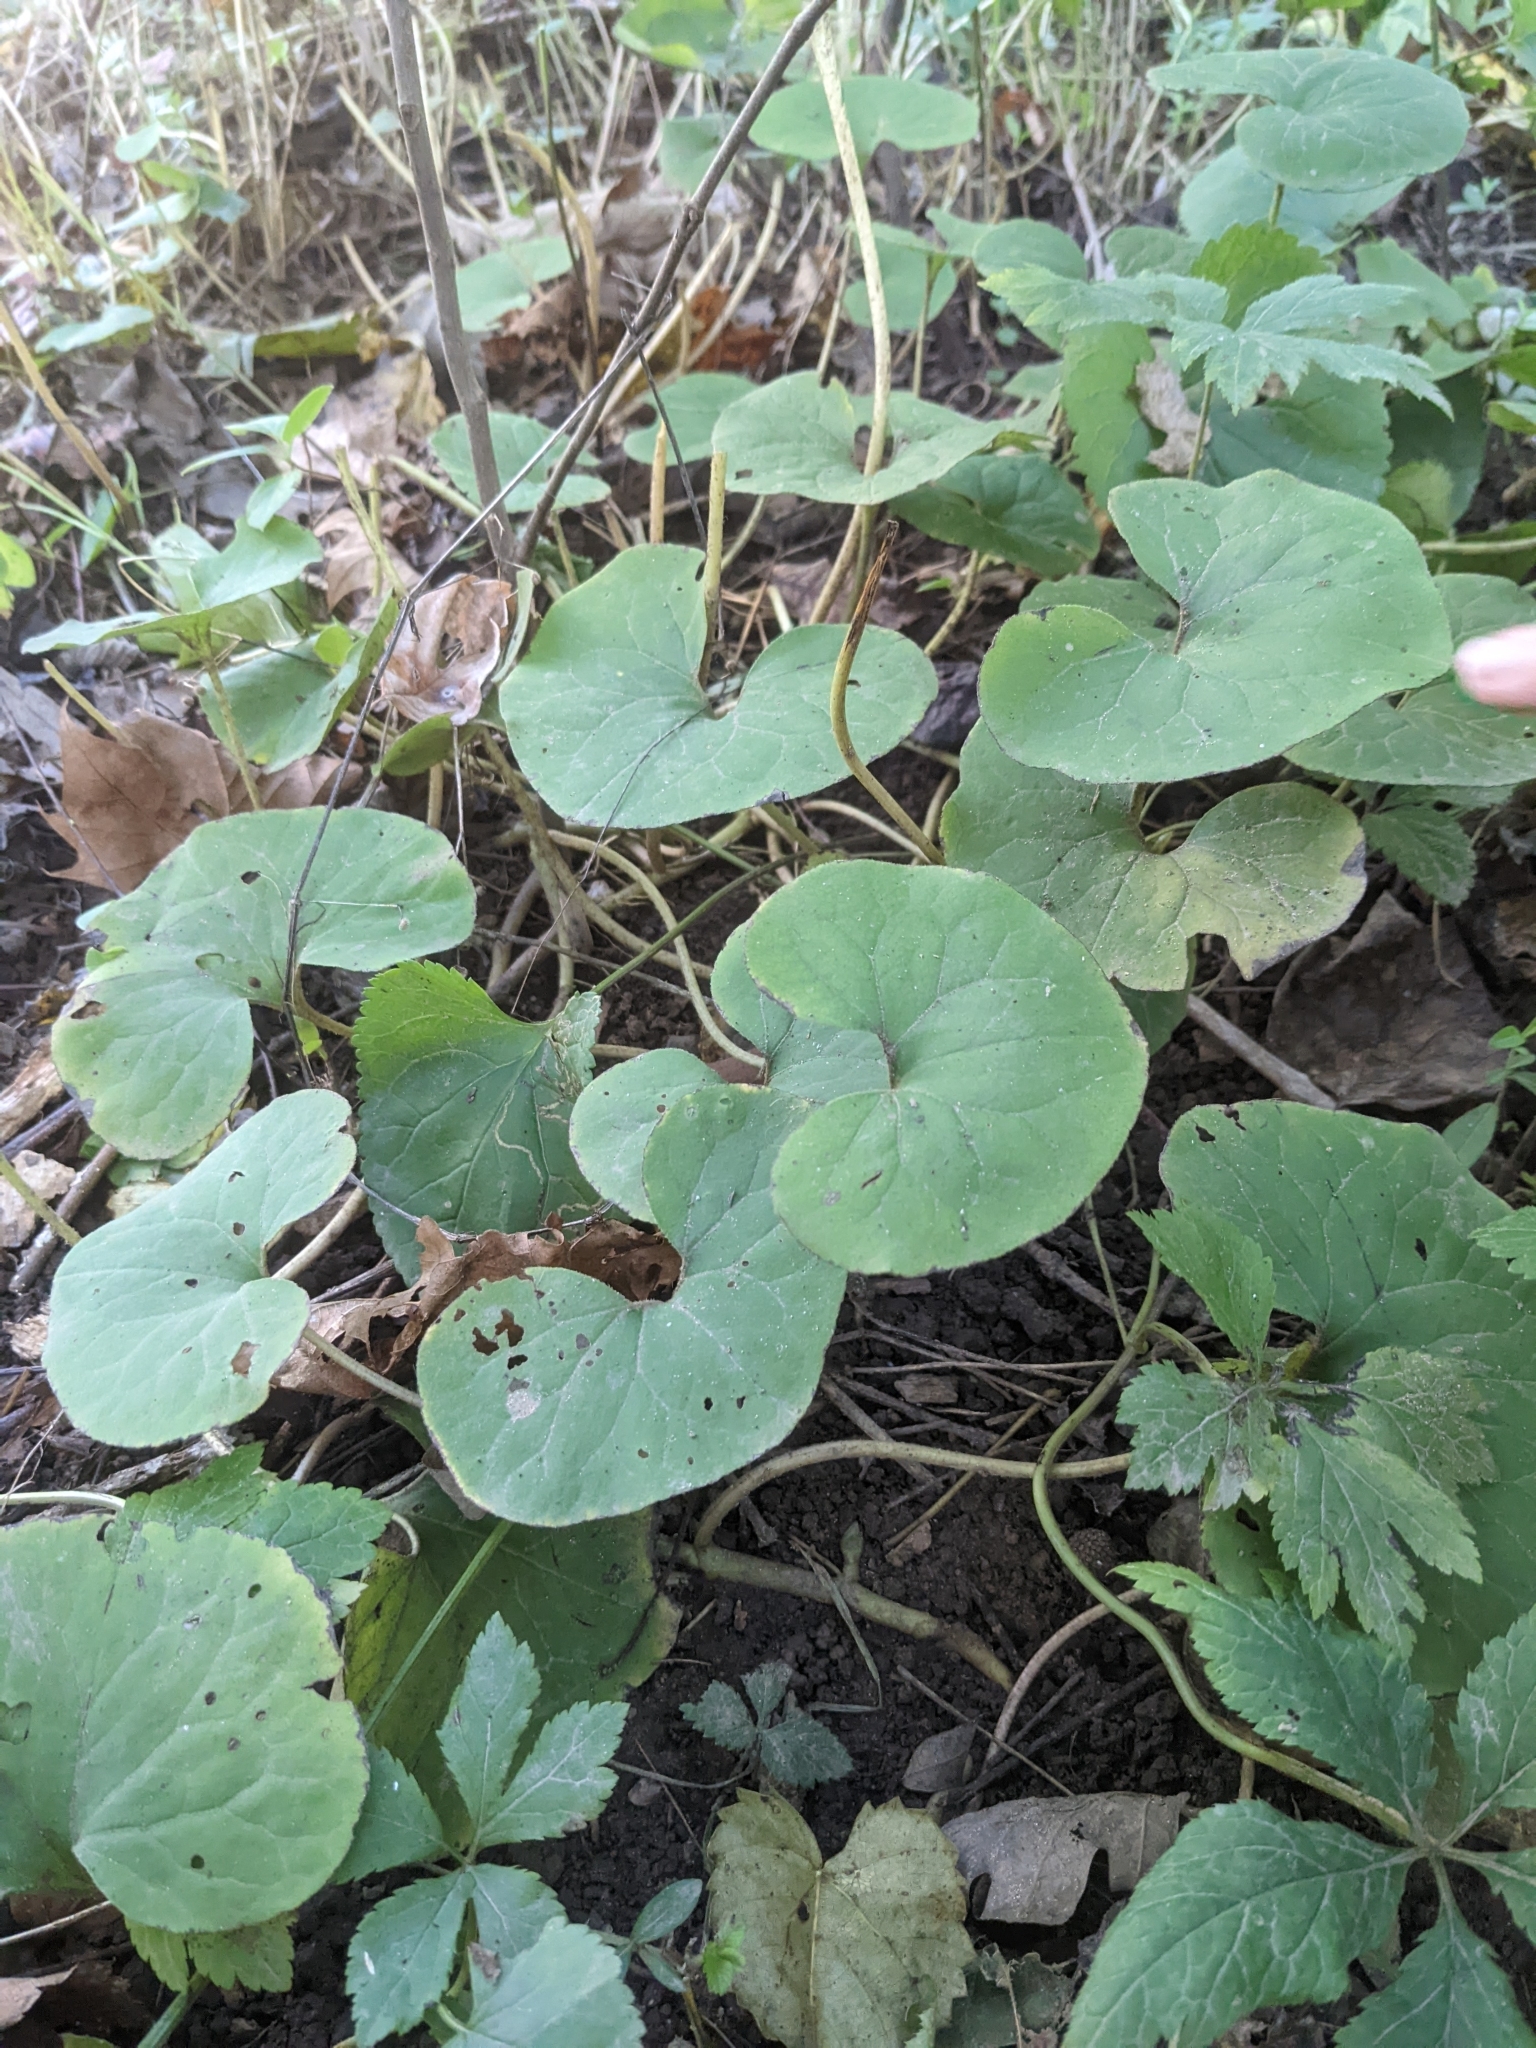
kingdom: Plantae
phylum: Tracheophyta
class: Magnoliopsida
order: Piperales
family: Aristolochiaceae
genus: Asarum
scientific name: Asarum canadense
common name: Wild ginger
